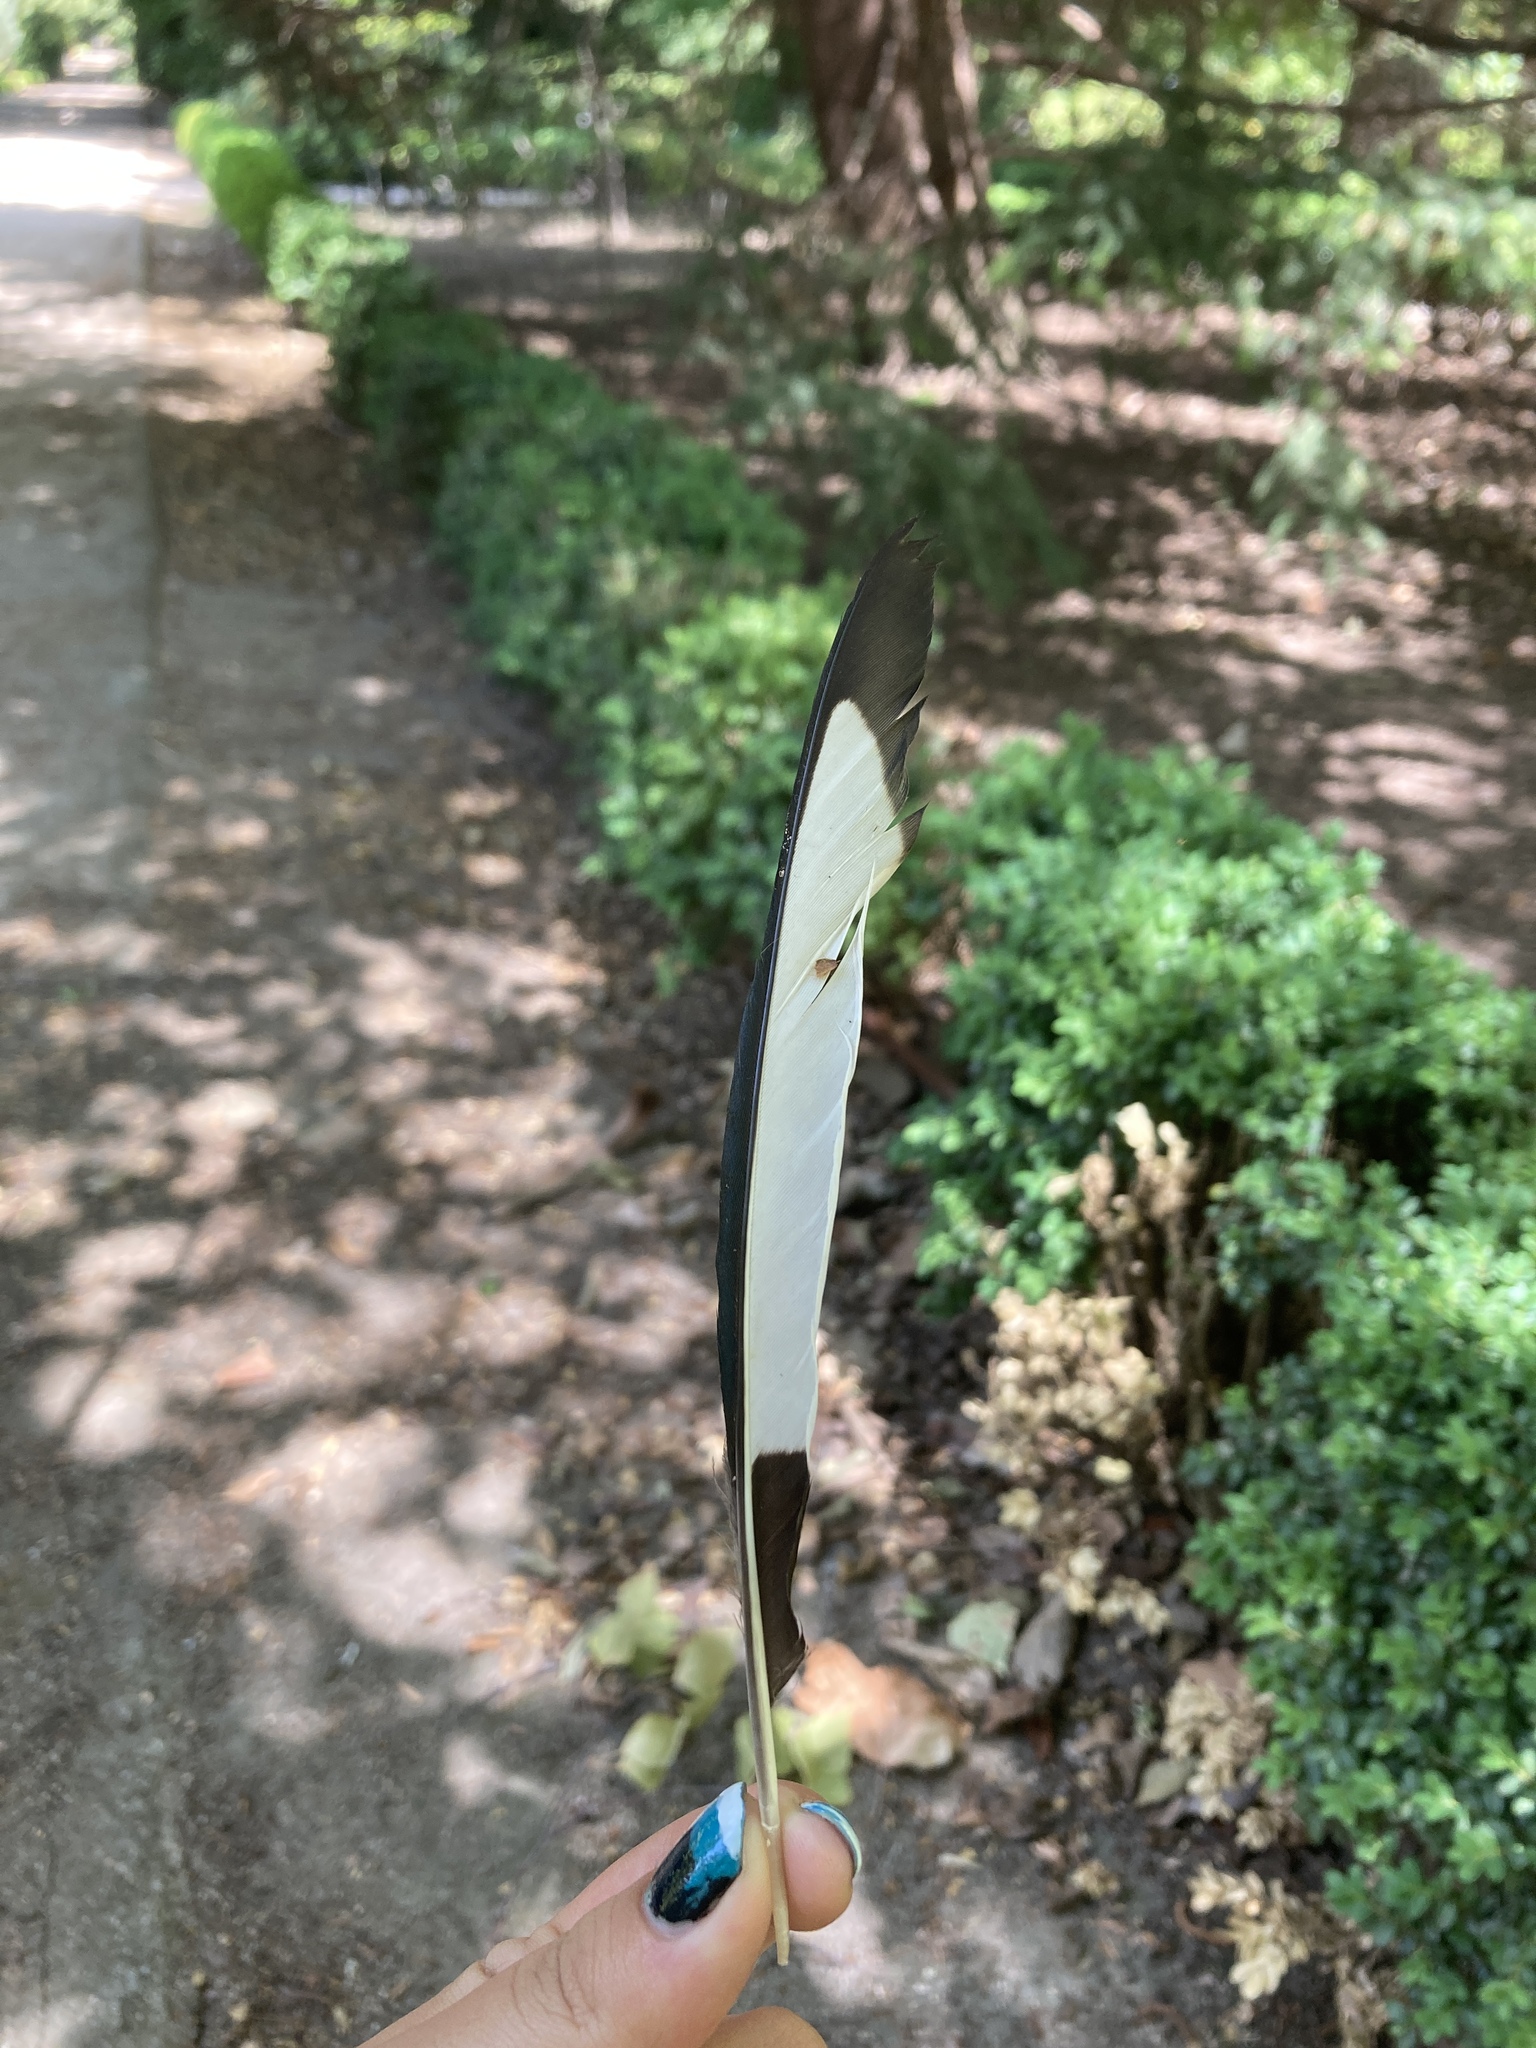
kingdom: Animalia
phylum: Chordata
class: Aves
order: Passeriformes
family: Corvidae
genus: Pica
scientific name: Pica pica
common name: Eurasian magpie
